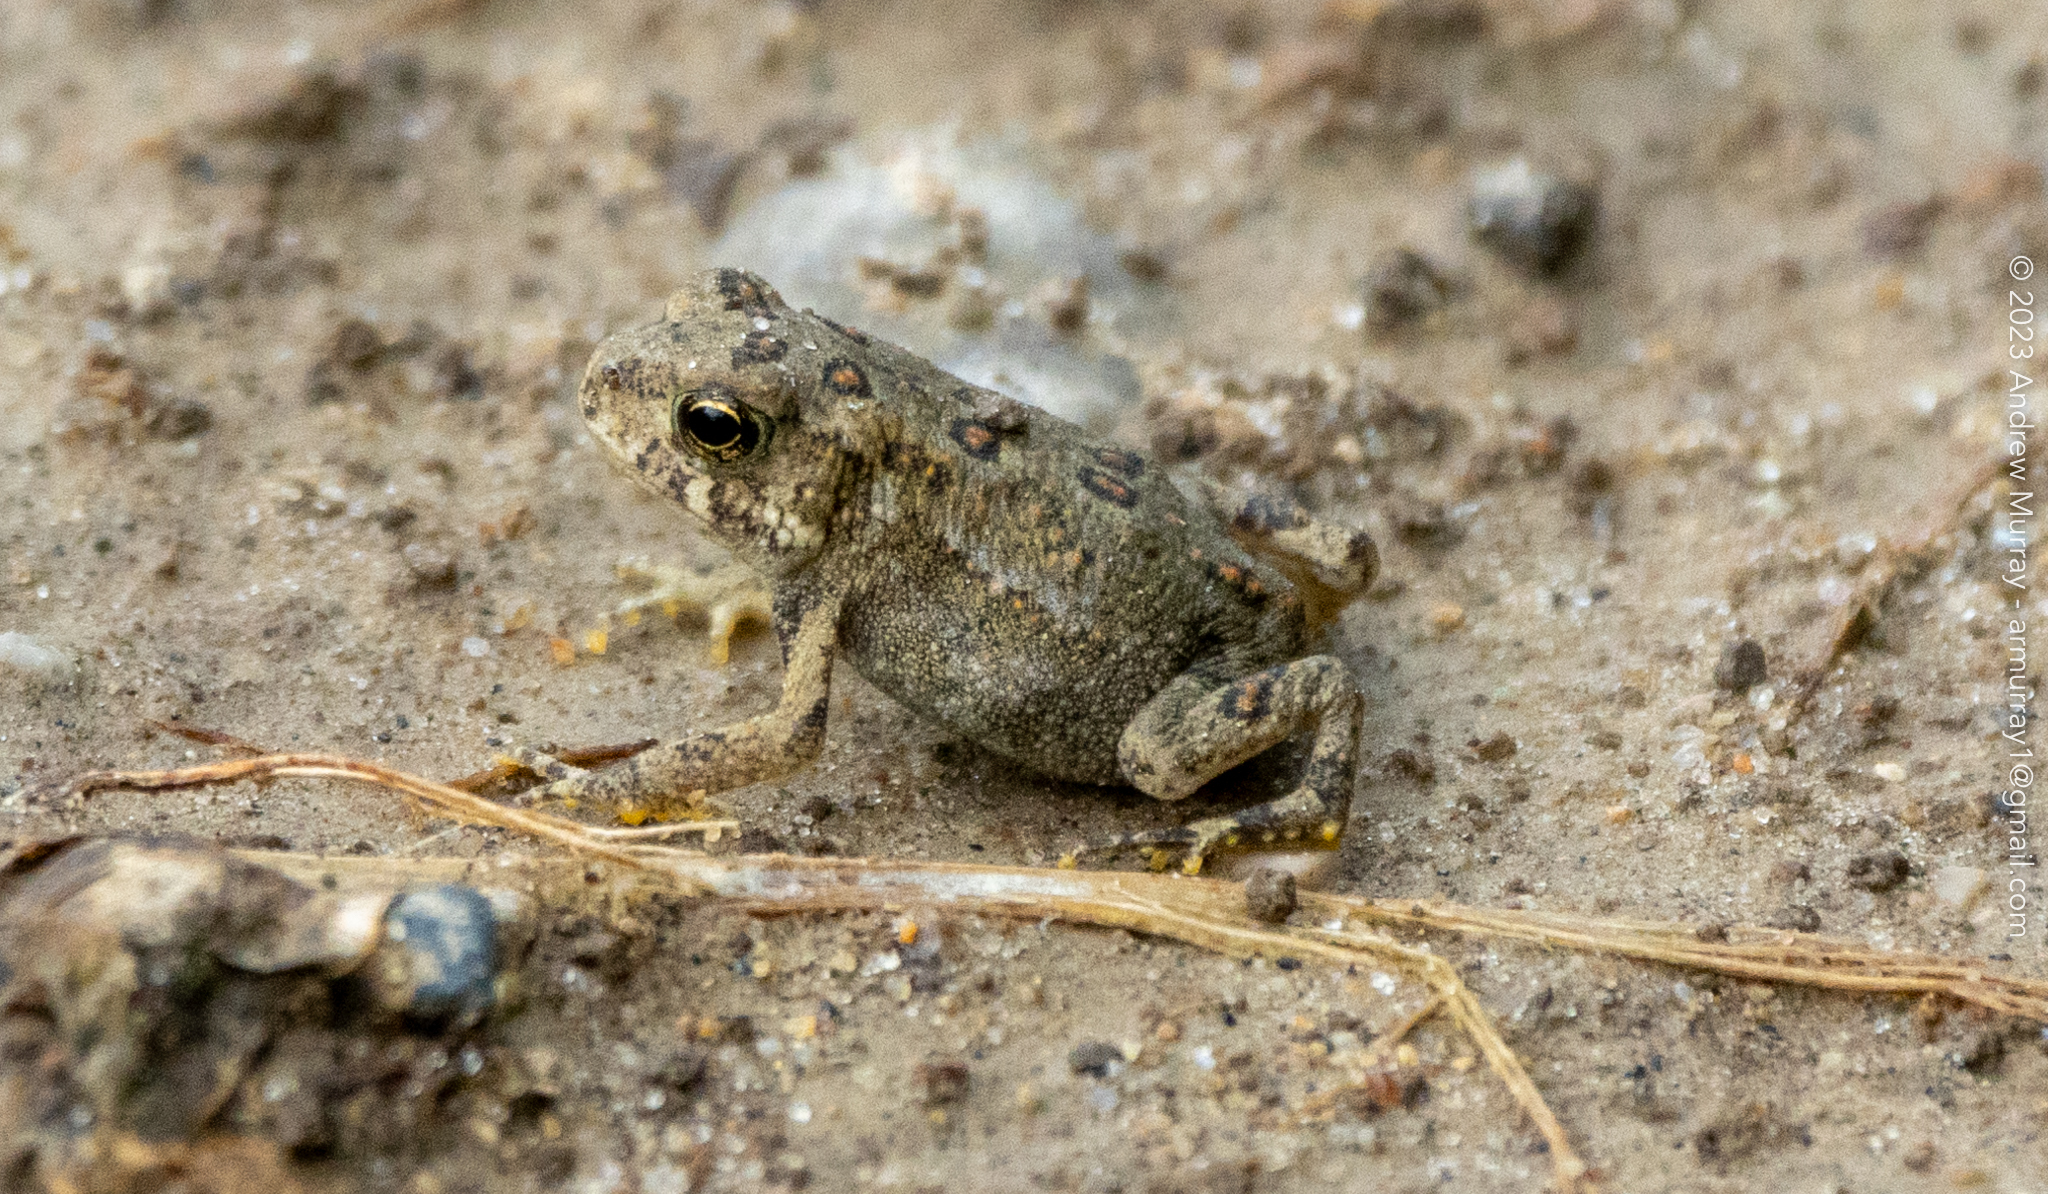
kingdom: Animalia
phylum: Chordata
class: Amphibia
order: Anura
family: Bufonidae
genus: Anaxyrus
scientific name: Anaxyrus americanus
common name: American toad
